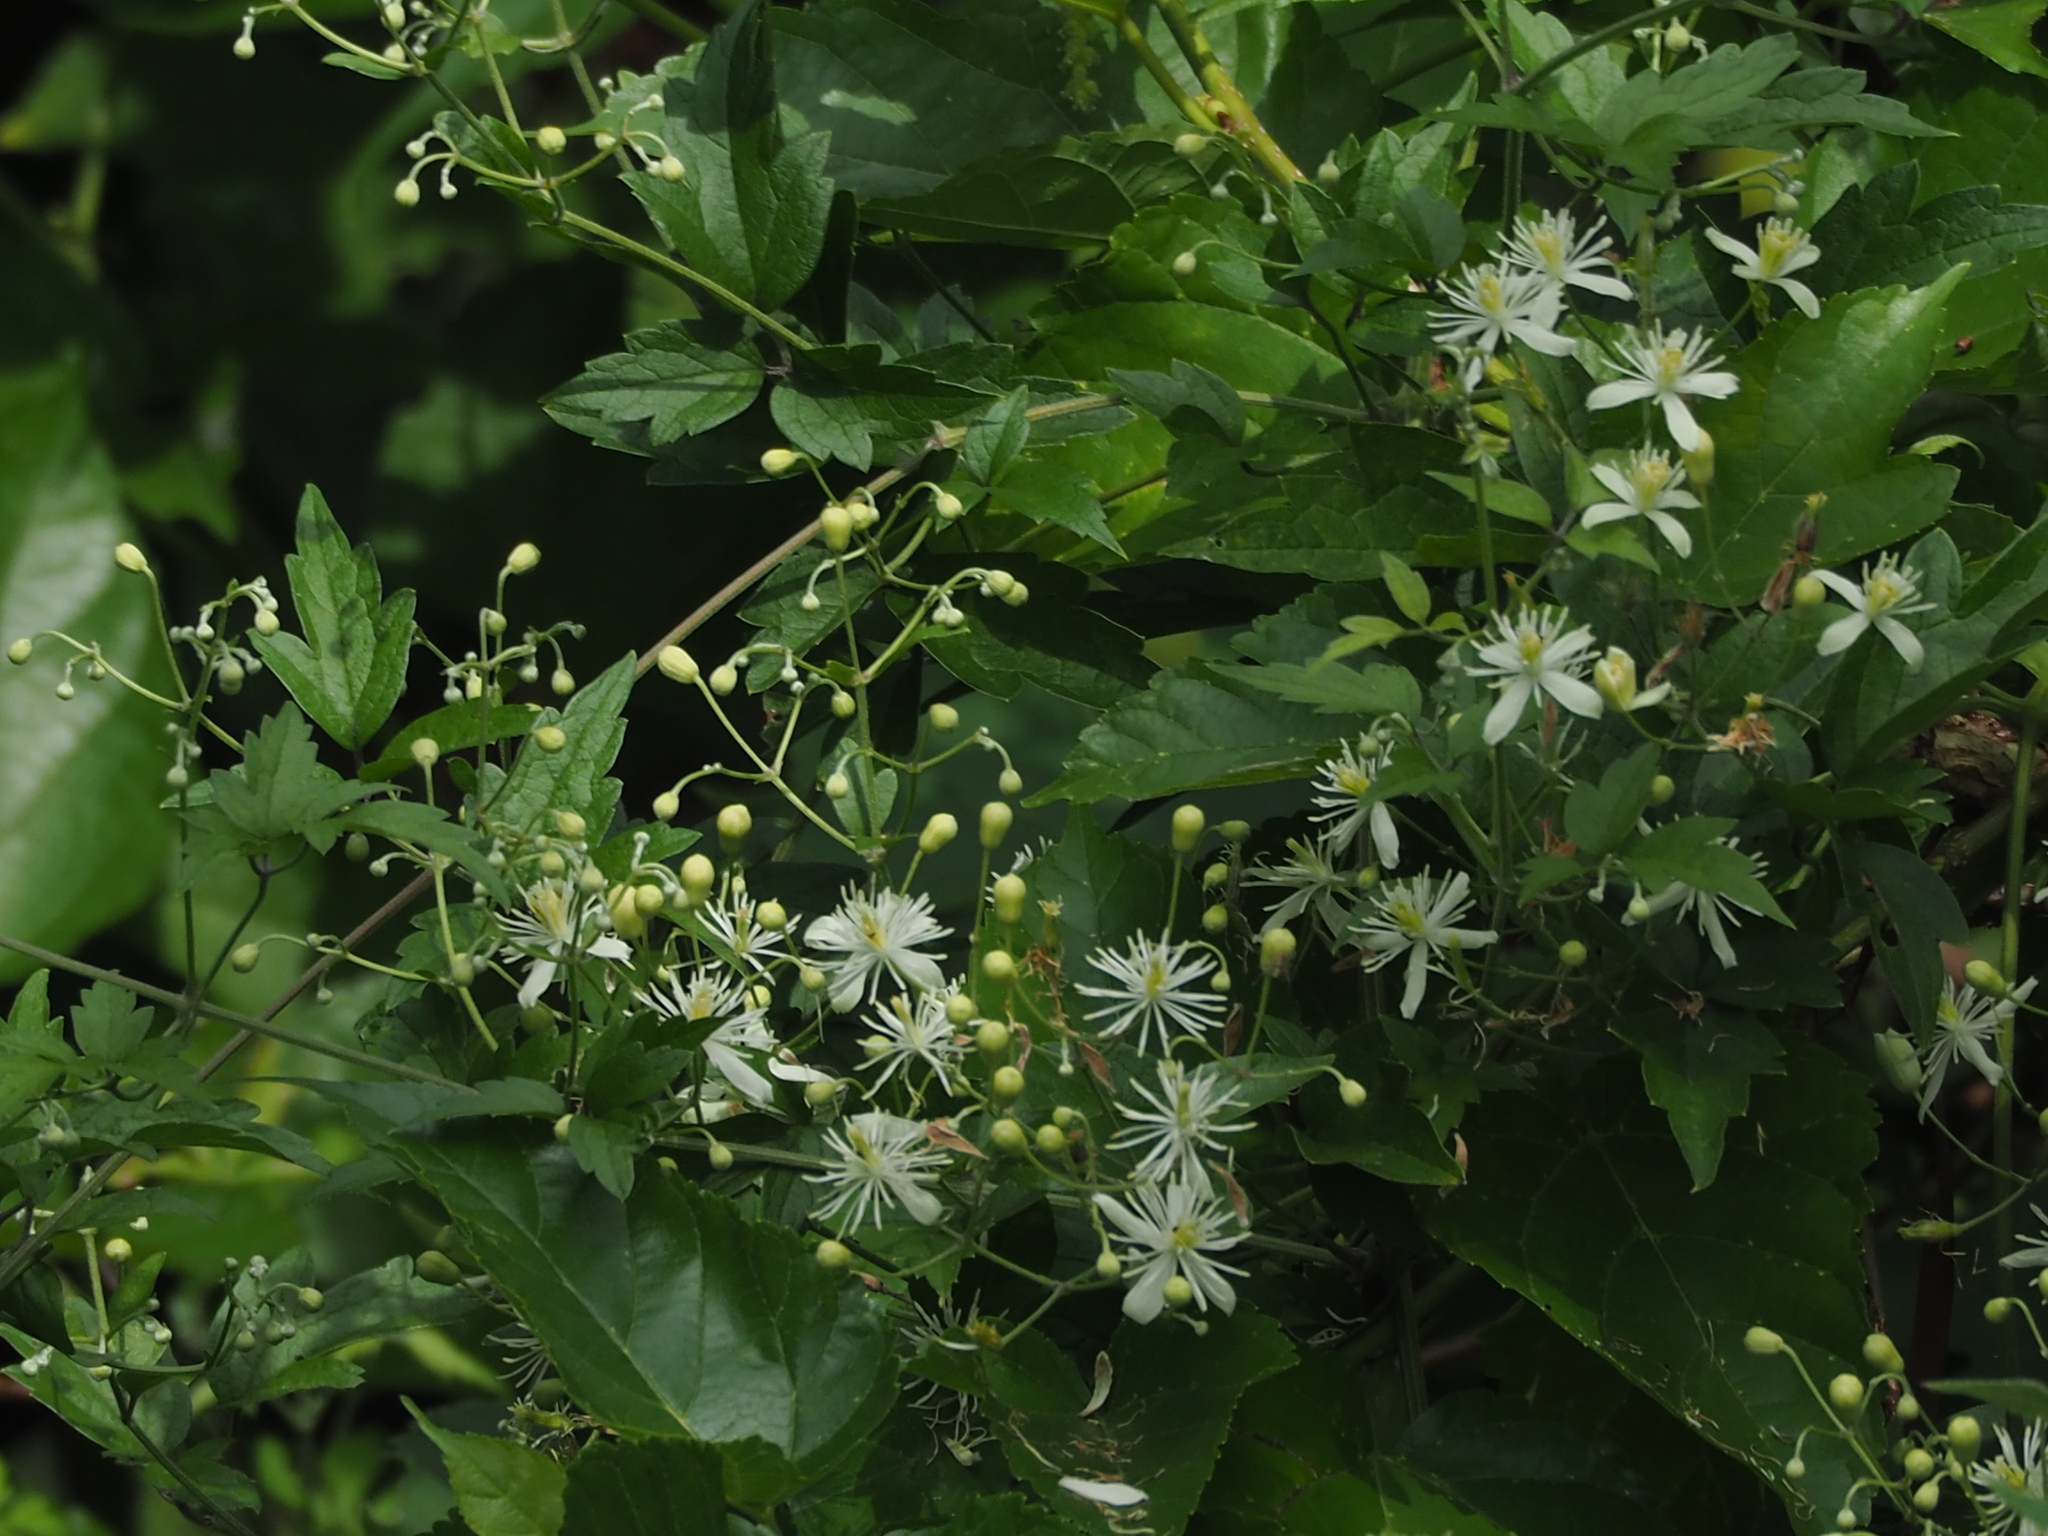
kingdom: Plantae
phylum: Tracheophyta
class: Magnoliopsida
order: Ranunculales
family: Ranunculaceae
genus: Clematis
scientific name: Clematis grata
